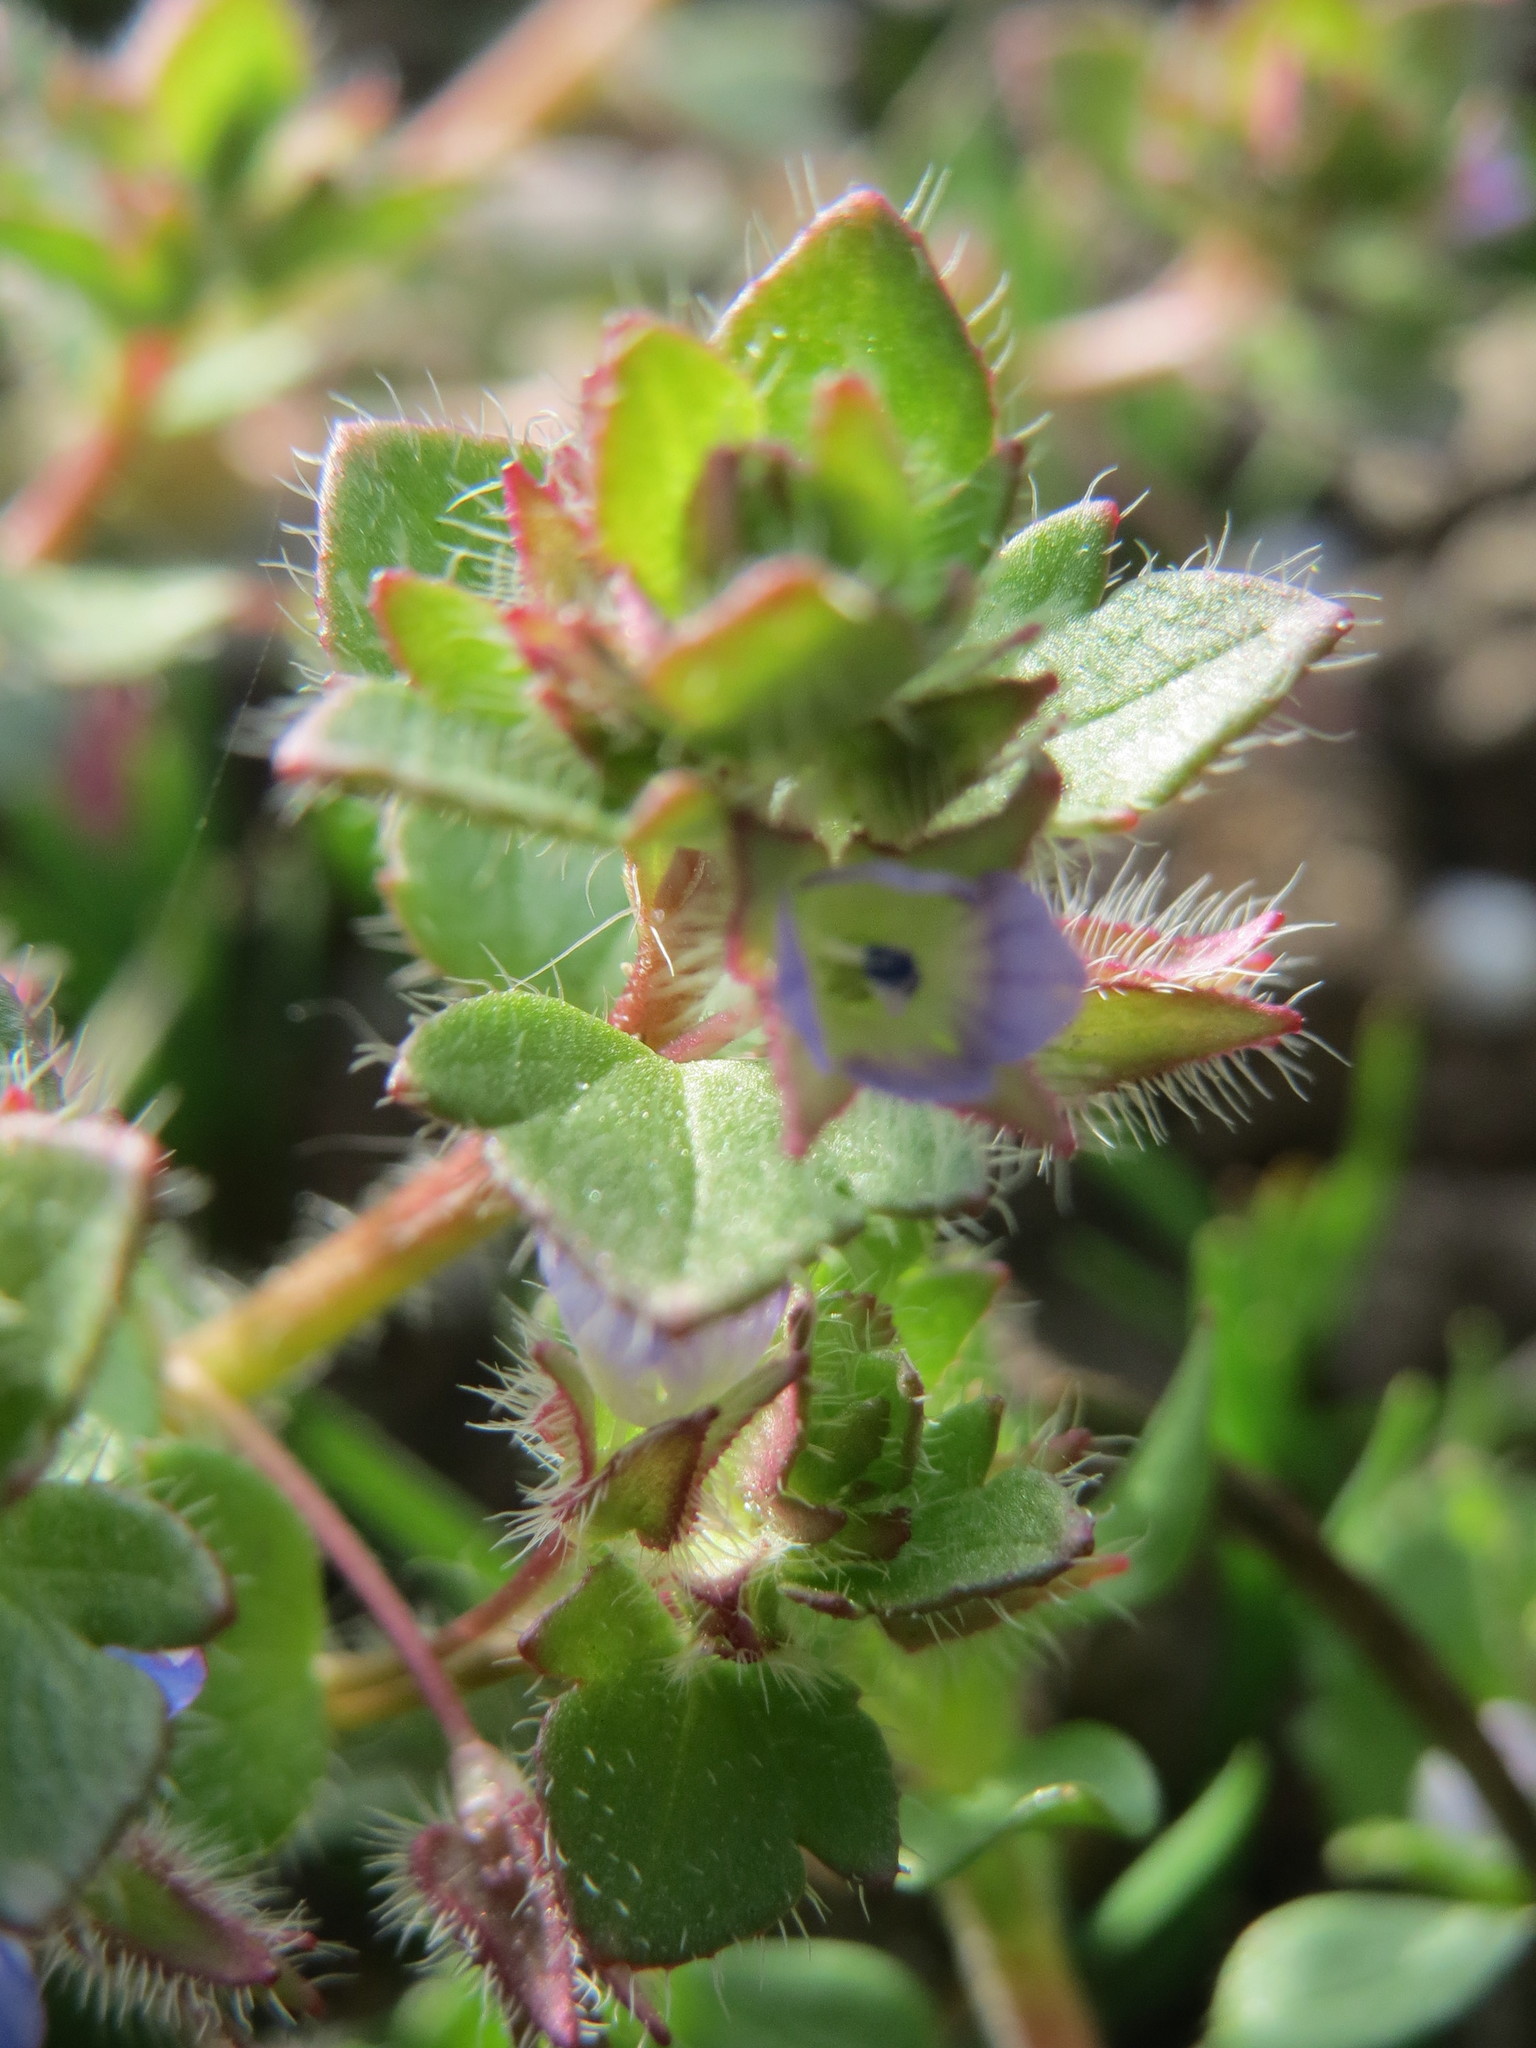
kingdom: Plantae
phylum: Tracheophyta
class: Magnoliopsida
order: Lamiales
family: Plantaginaceae
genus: Veronica
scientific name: Veronica hederifolia
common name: Ivy-leaved speedwell
